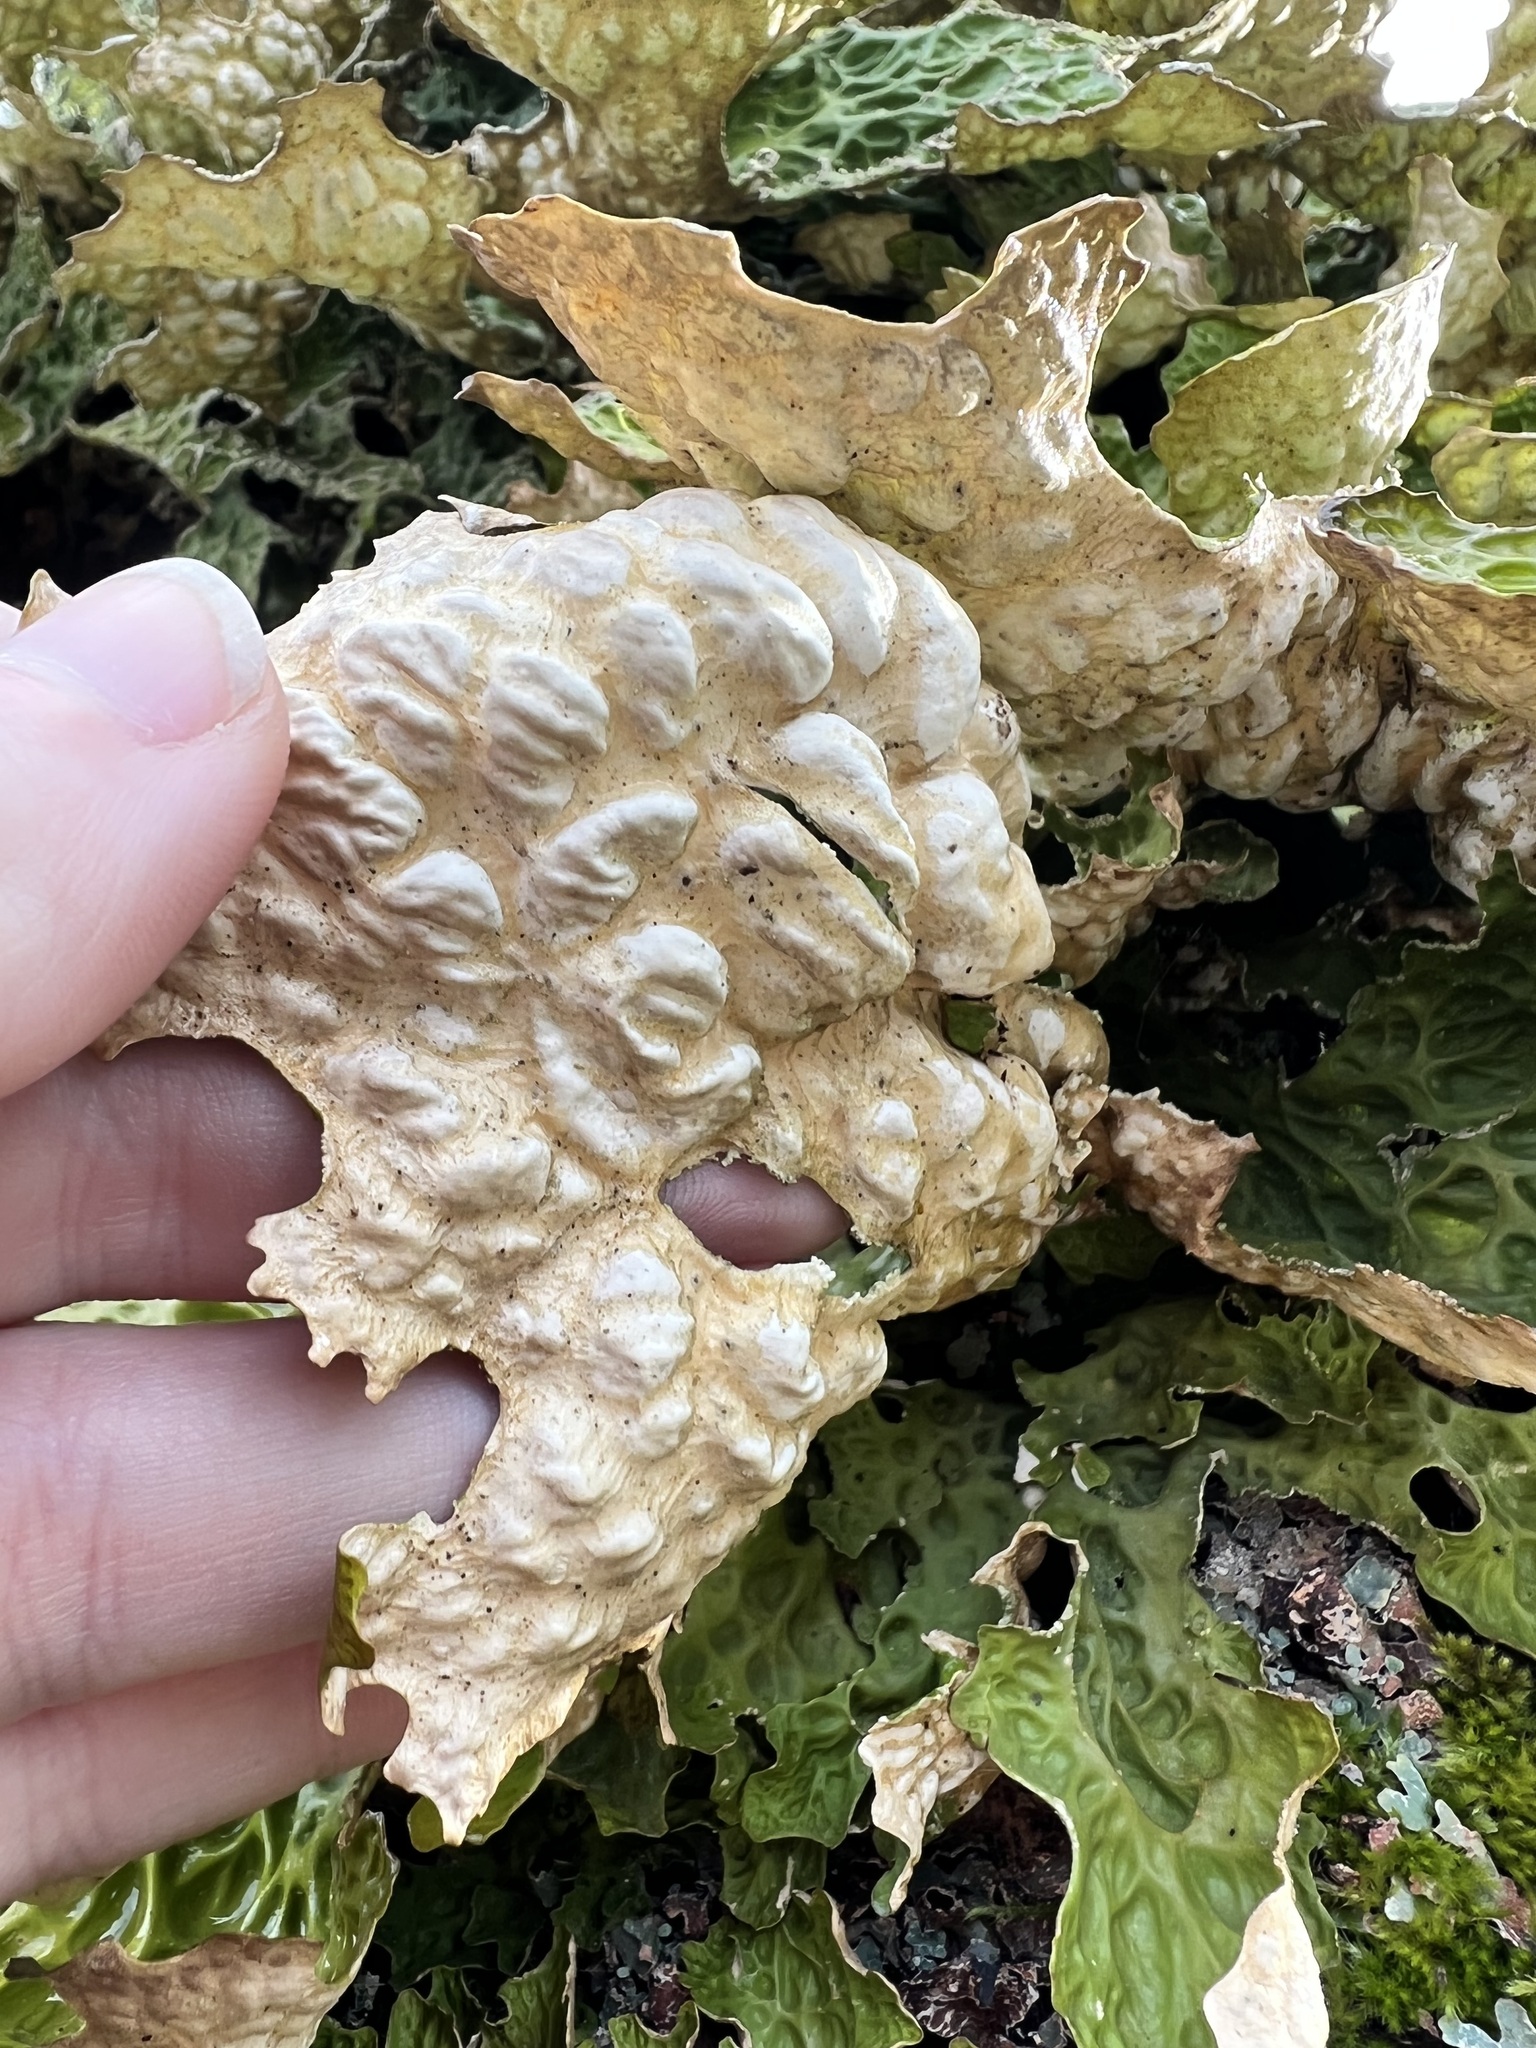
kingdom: Fungi
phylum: Ascomycota
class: Lecanoromycetes
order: Peltigerales
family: Lobariaceae
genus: Lobaria
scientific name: Lobaria pulmonaria
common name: Lungwort
